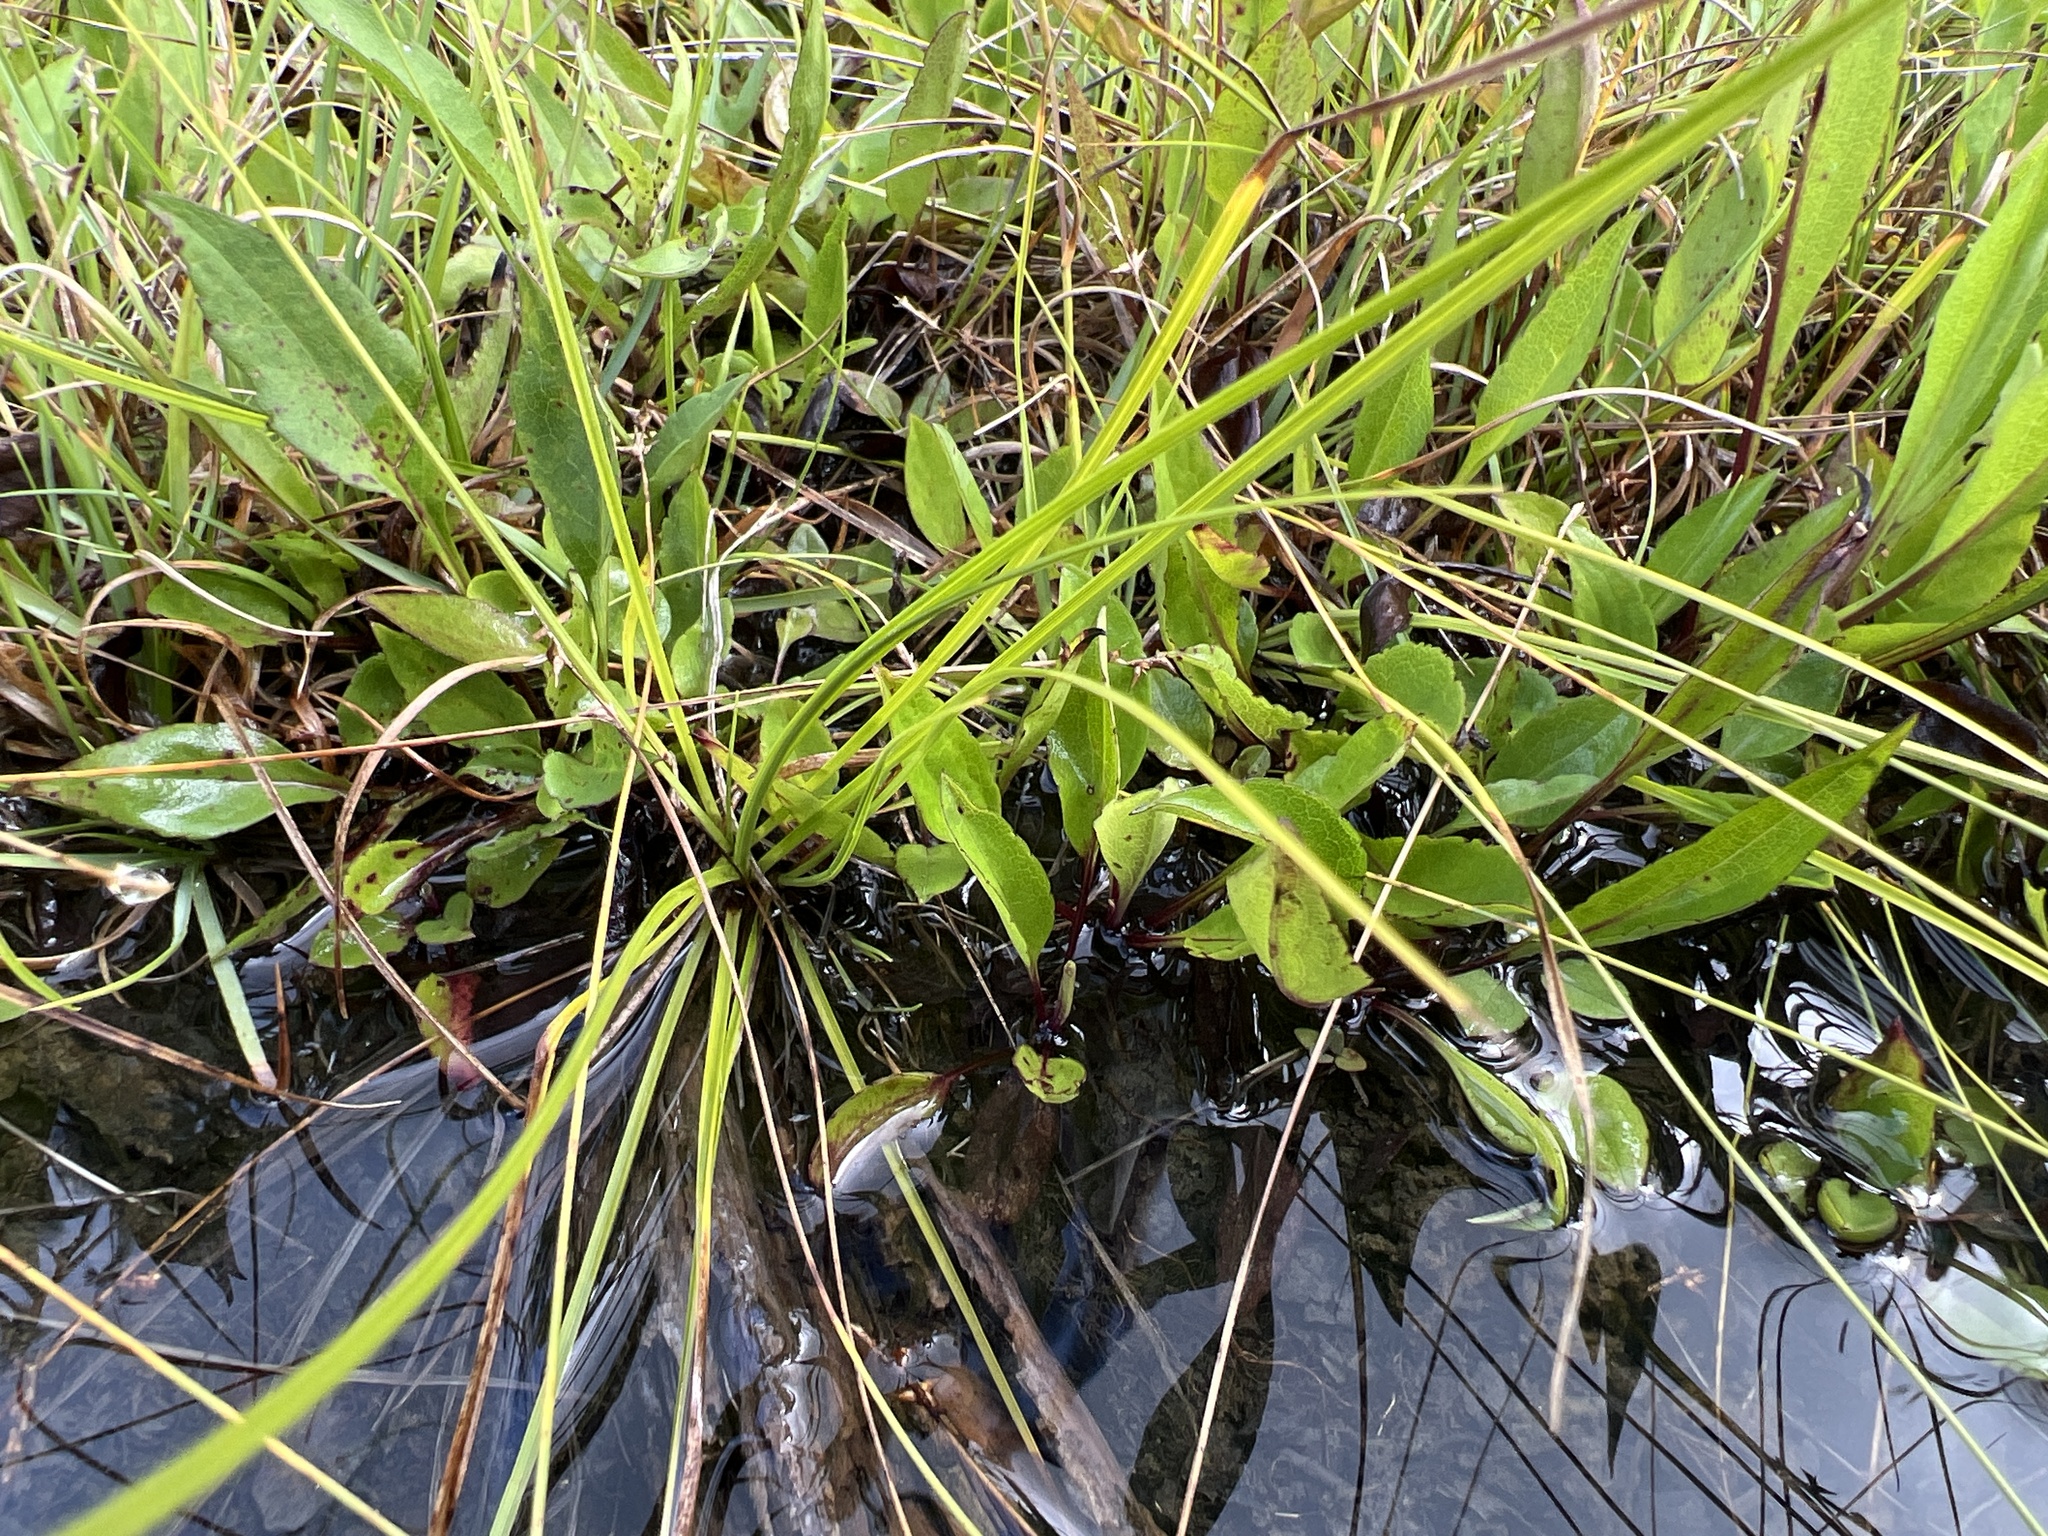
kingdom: Plantae
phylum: Tracheophyta
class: Magnoliopsida
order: Asterales
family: Asteraceae
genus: Symphyotrichum
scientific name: Symphyotrichum rhiannon
